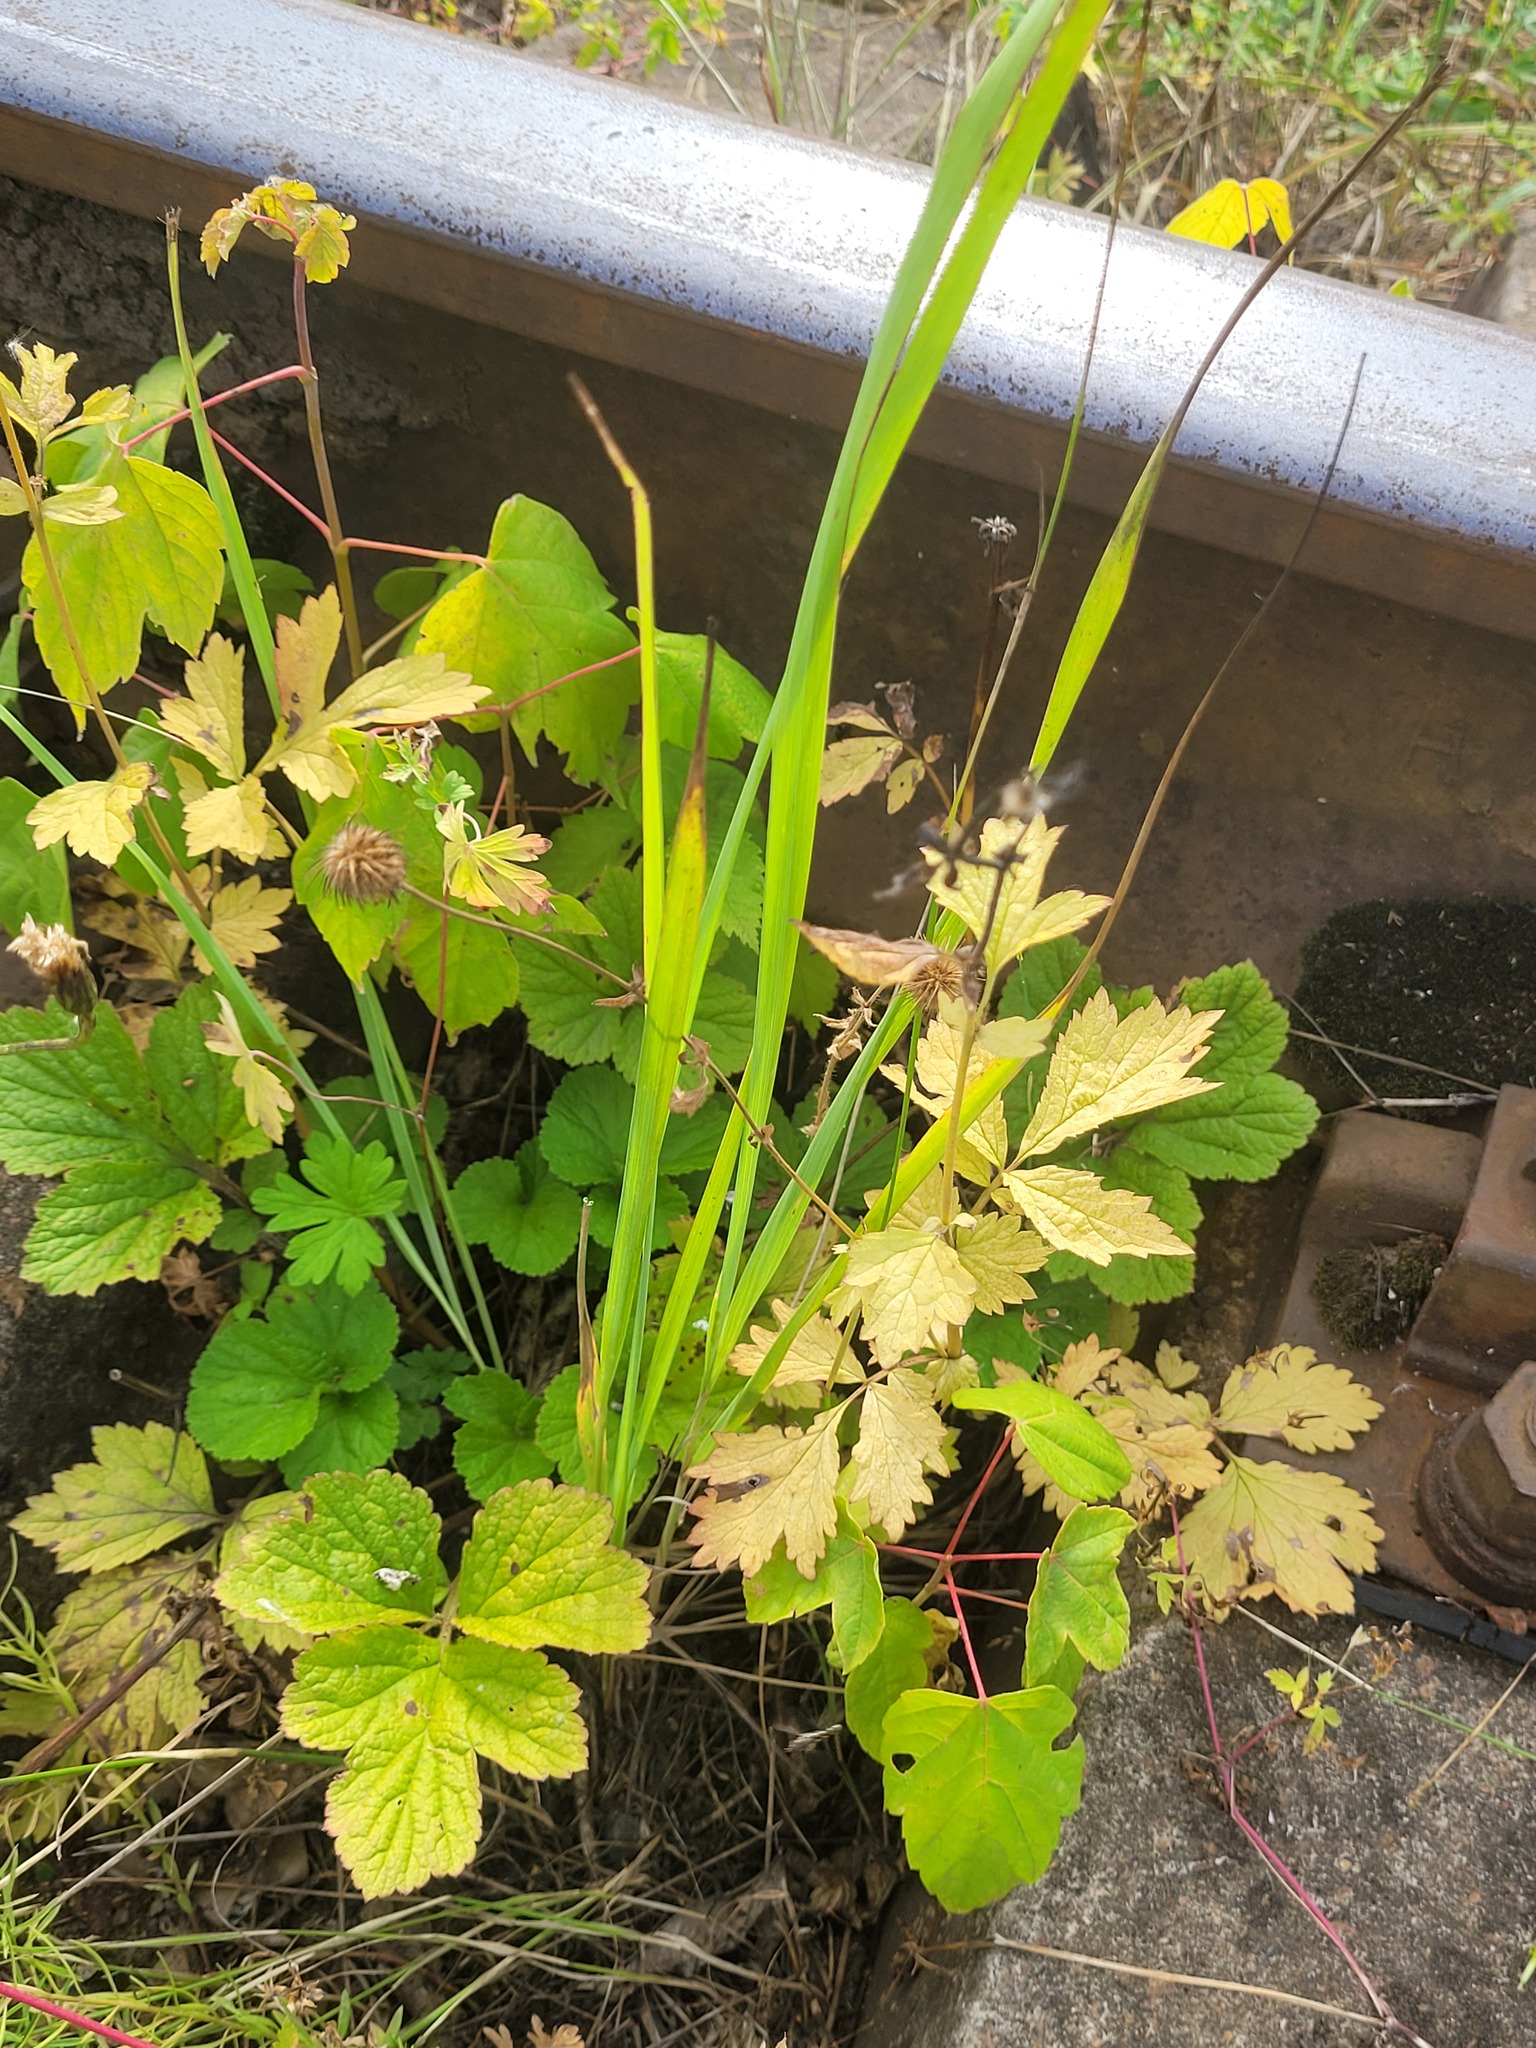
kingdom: Plantae
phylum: Tracheophyta
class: Magnoliopsida
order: Rosales
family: Rosaceae
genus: Geum
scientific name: Geum aleppicum
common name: Yellow avens
